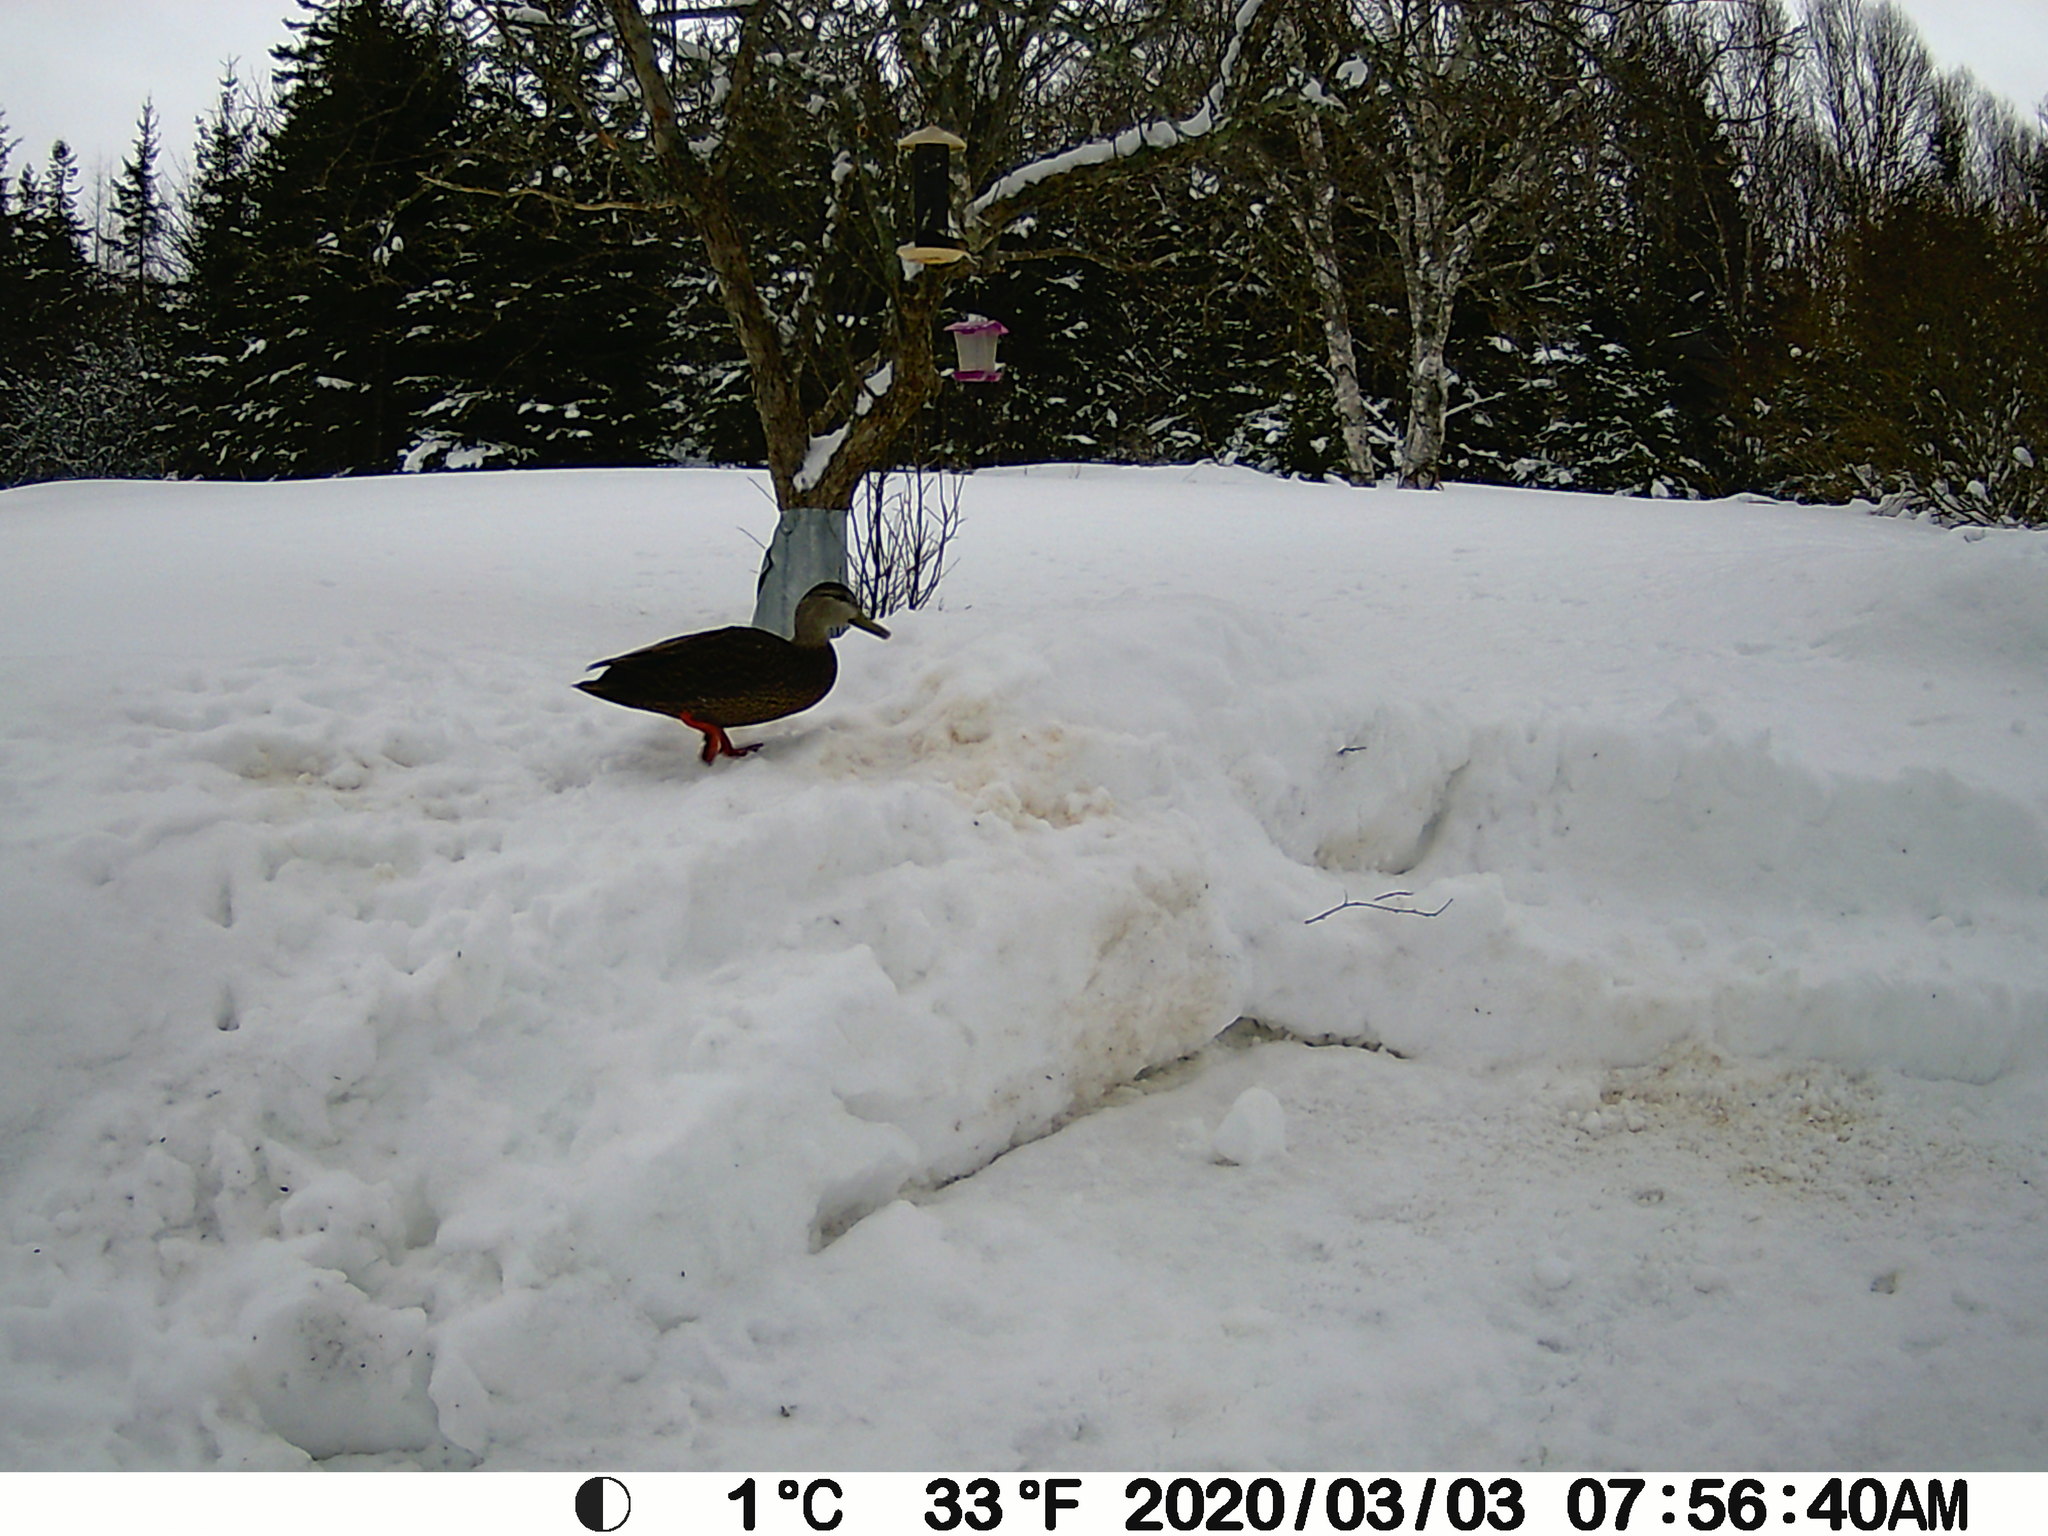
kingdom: Animalia
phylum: Chordata
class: Aves
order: Anseriformes
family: Anatidae
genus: Anas
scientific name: Anas rubripes
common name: American black duck
